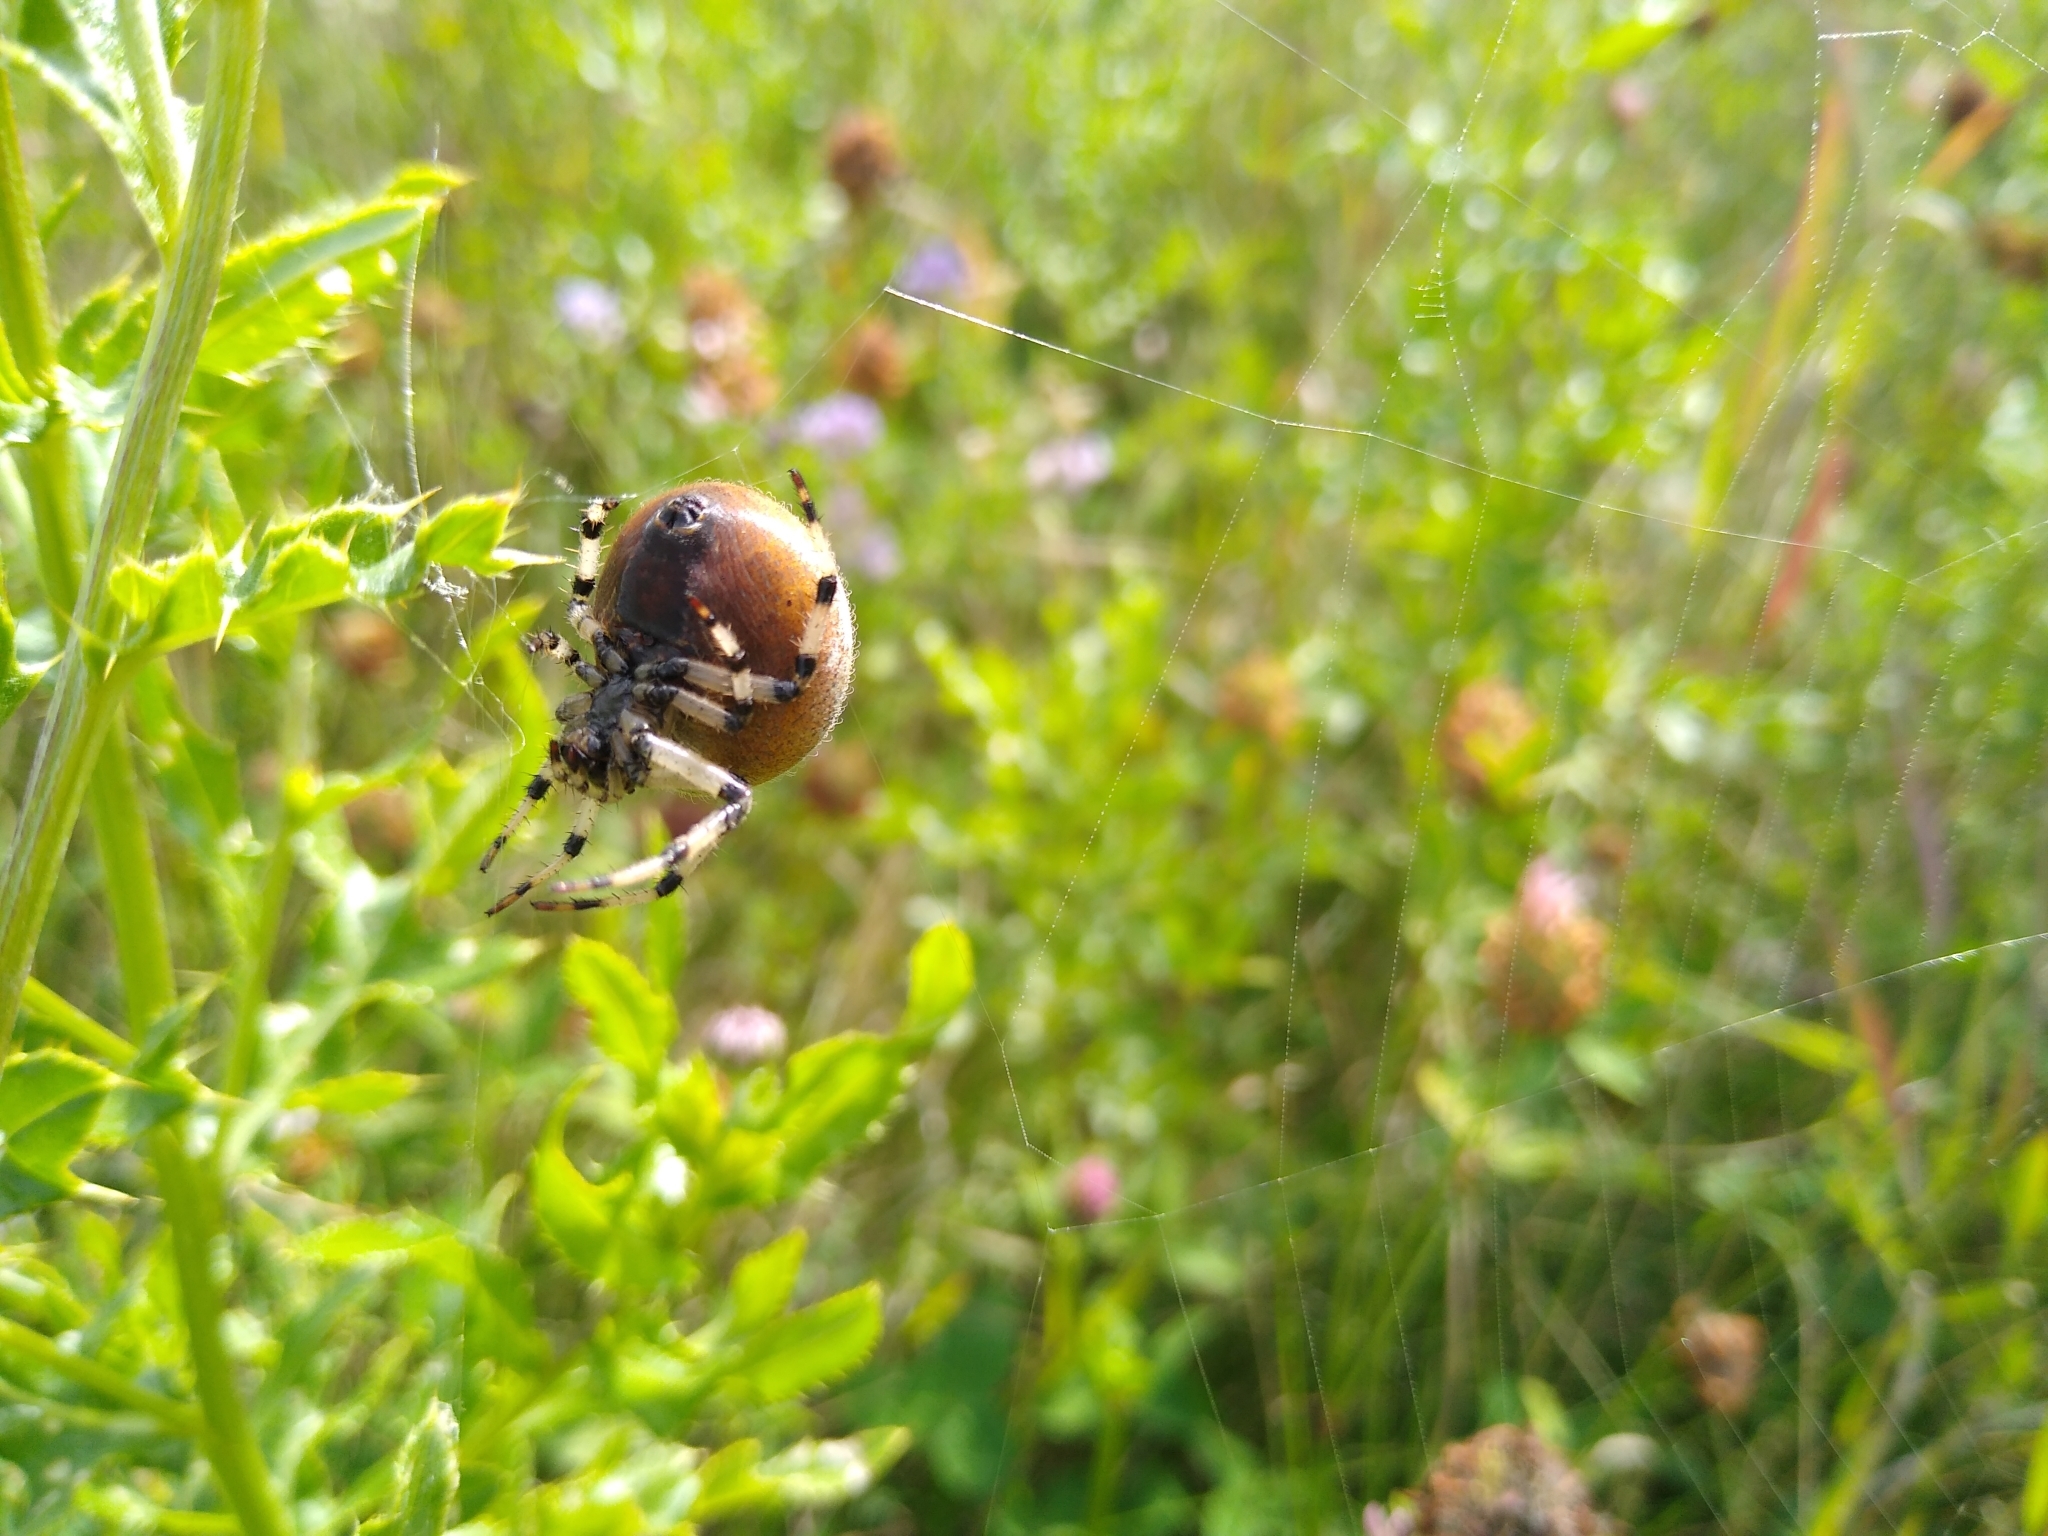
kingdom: Animalia
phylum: Arthropoda
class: Arachnida
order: Araneae
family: Araneidae
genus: Araneus
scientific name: Araneus trifolium
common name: Shamrock orbweaver
